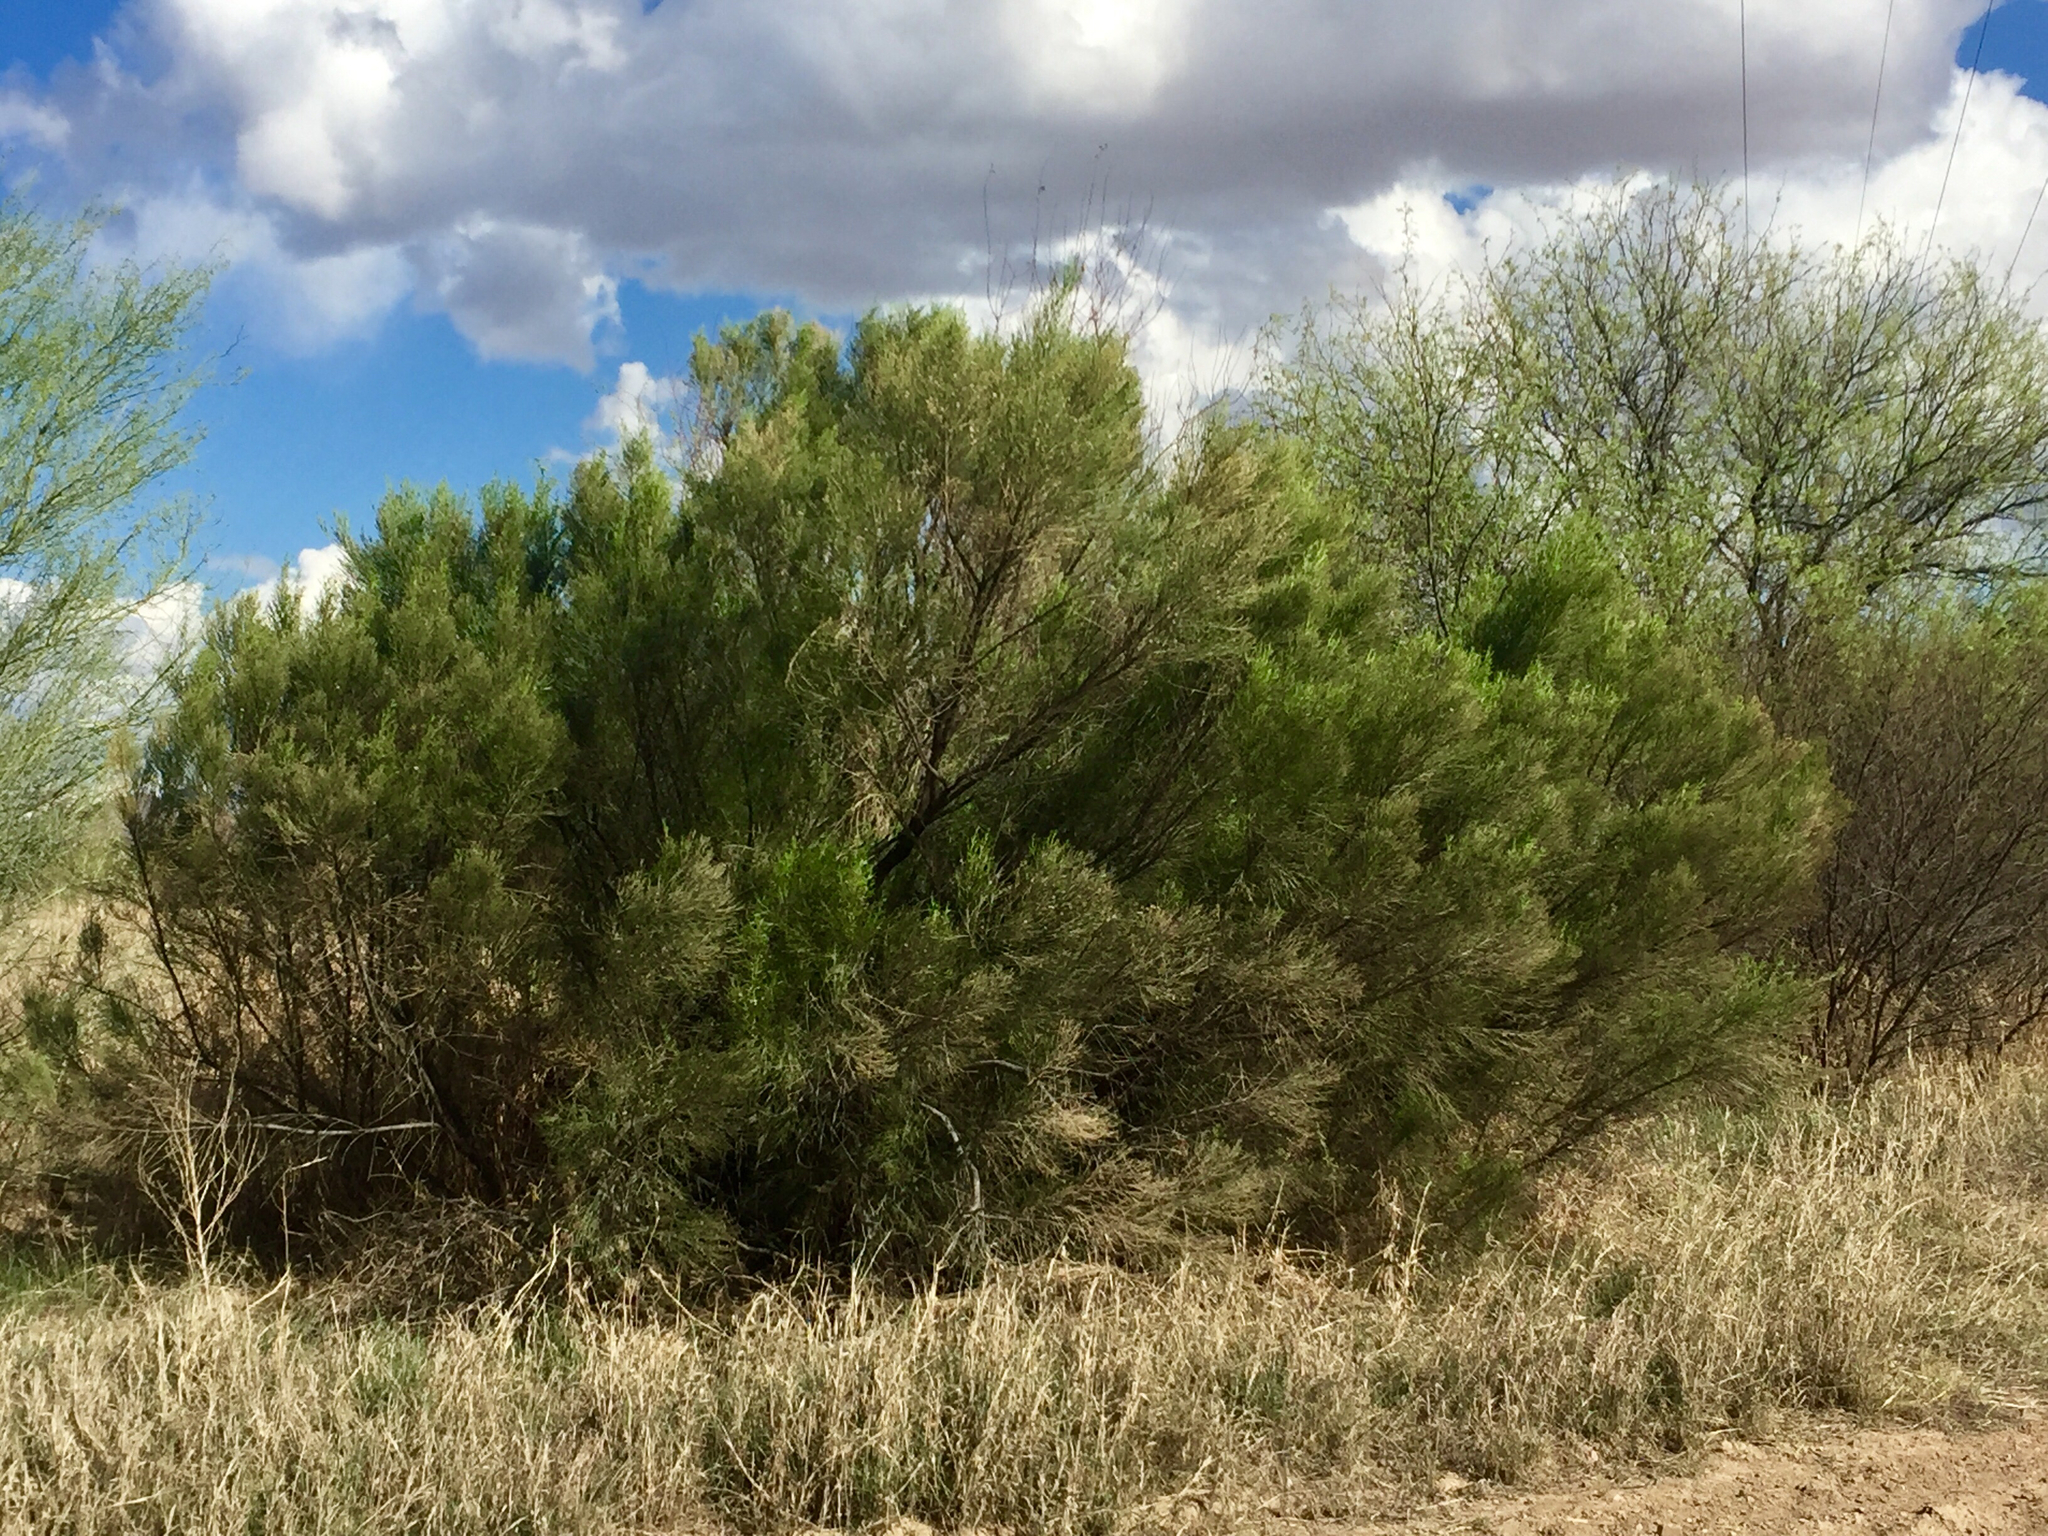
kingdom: Plantae
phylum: Tracheophyta
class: Magnoliopsida
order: Asterales
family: Asteraceae
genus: Baccharis
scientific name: Baccharis sarothroides
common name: Desert-broom
